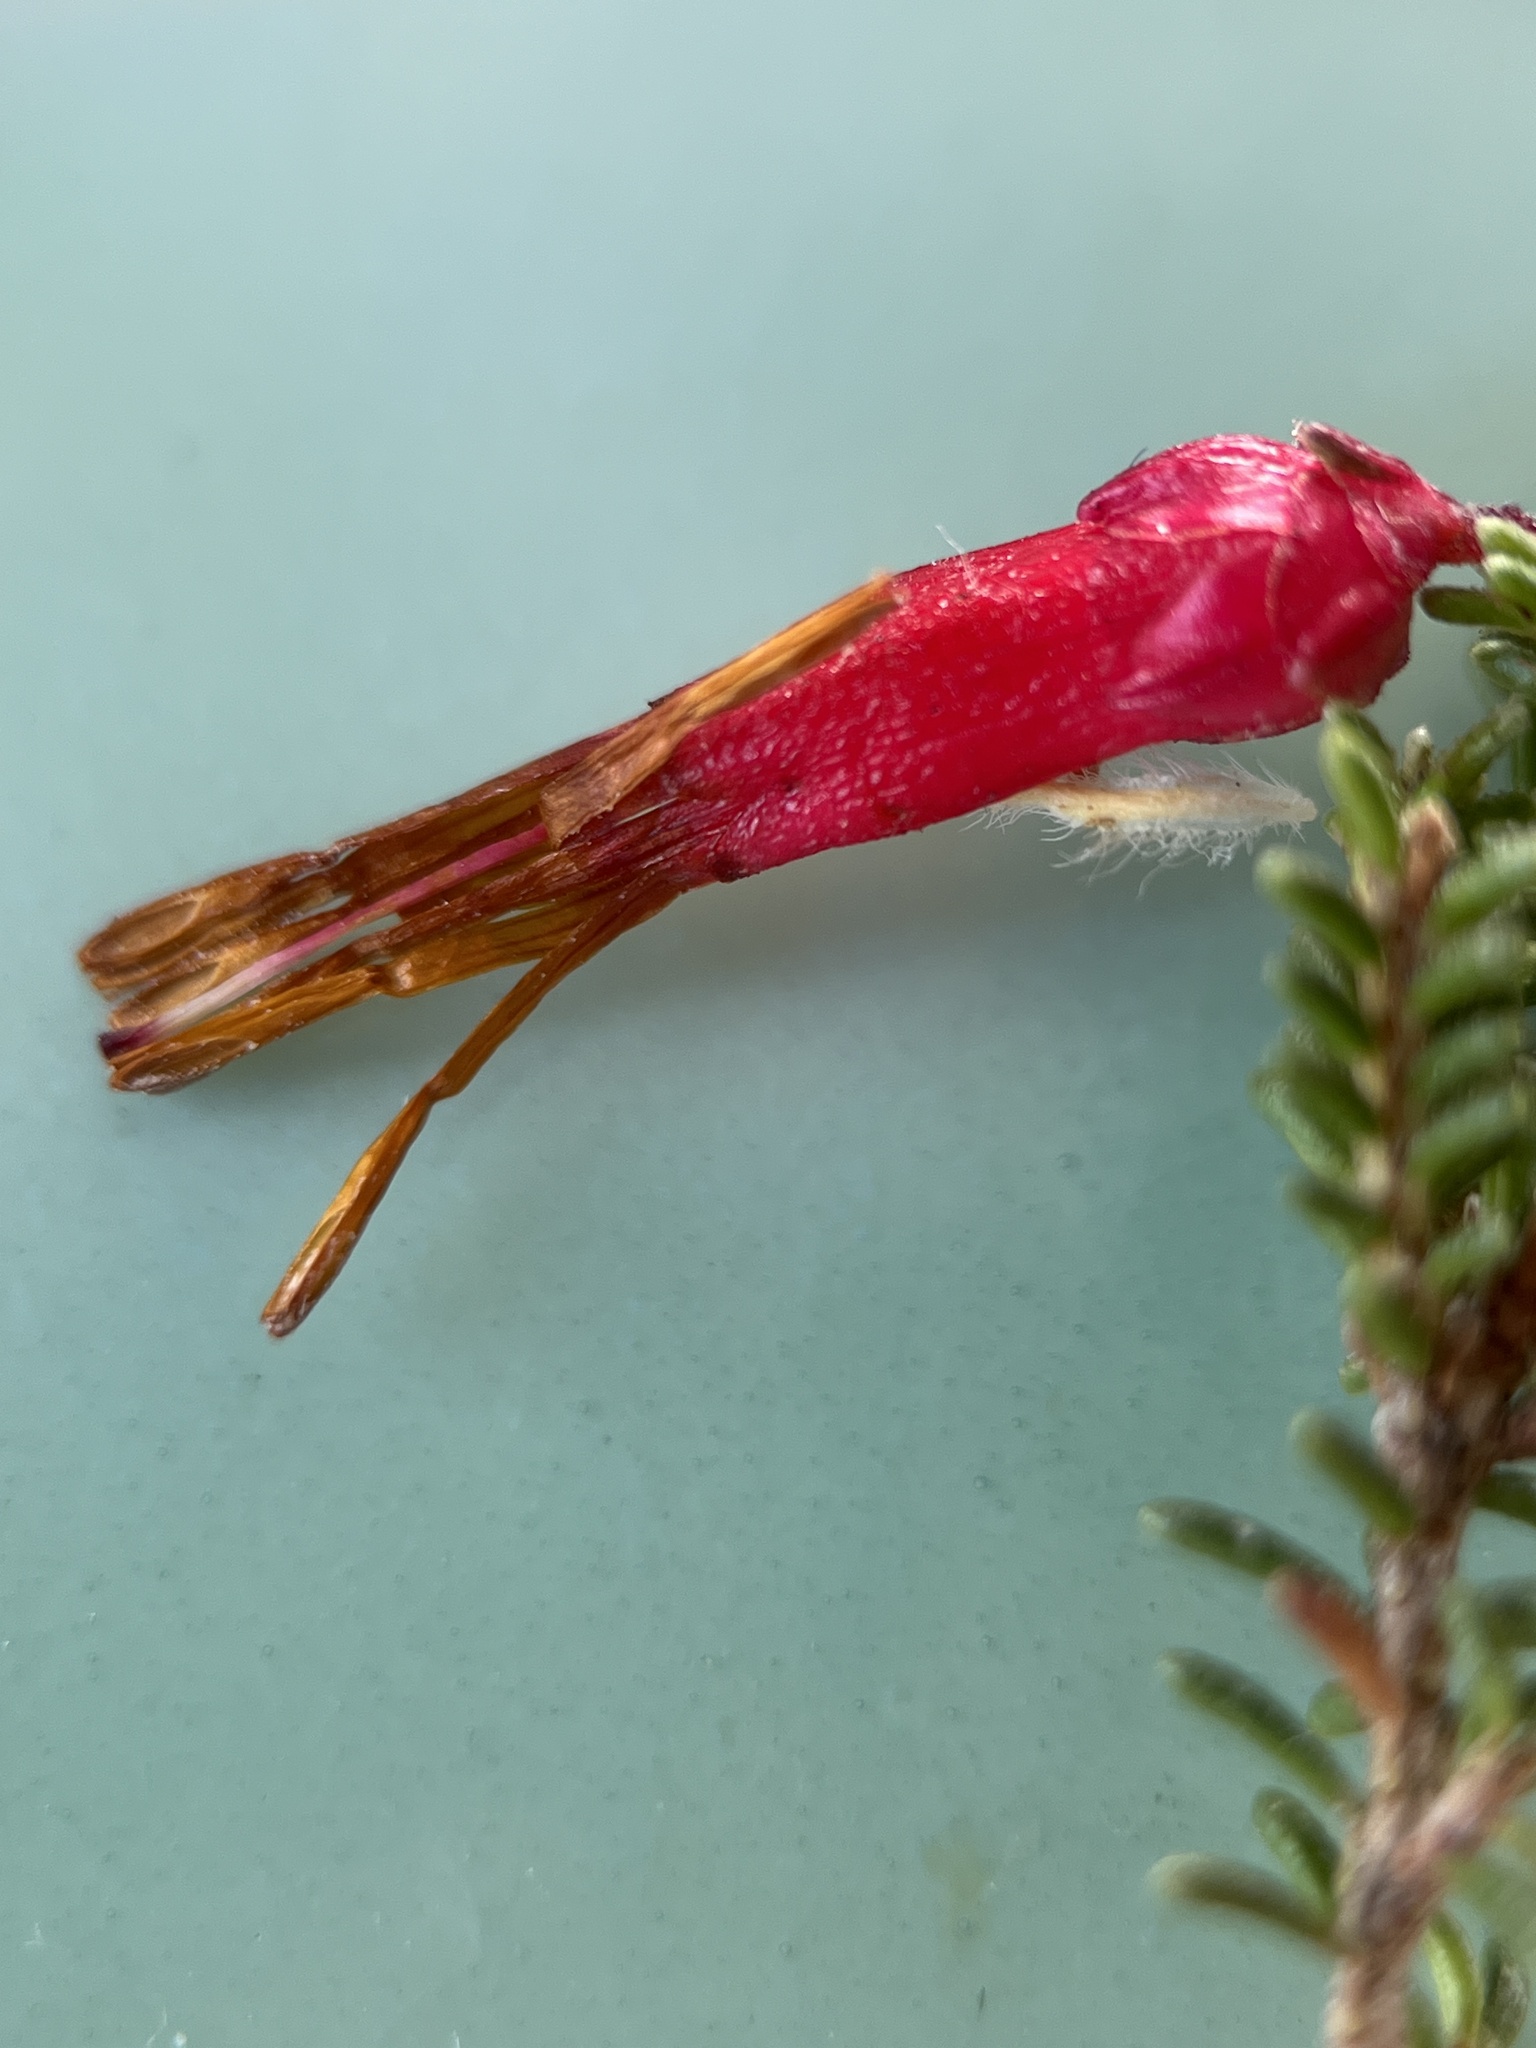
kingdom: Plantae
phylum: Tracheophyta
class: Magnoliopsida
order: Ericales
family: Ericaceae
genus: Erica
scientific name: Erica monadelphia
